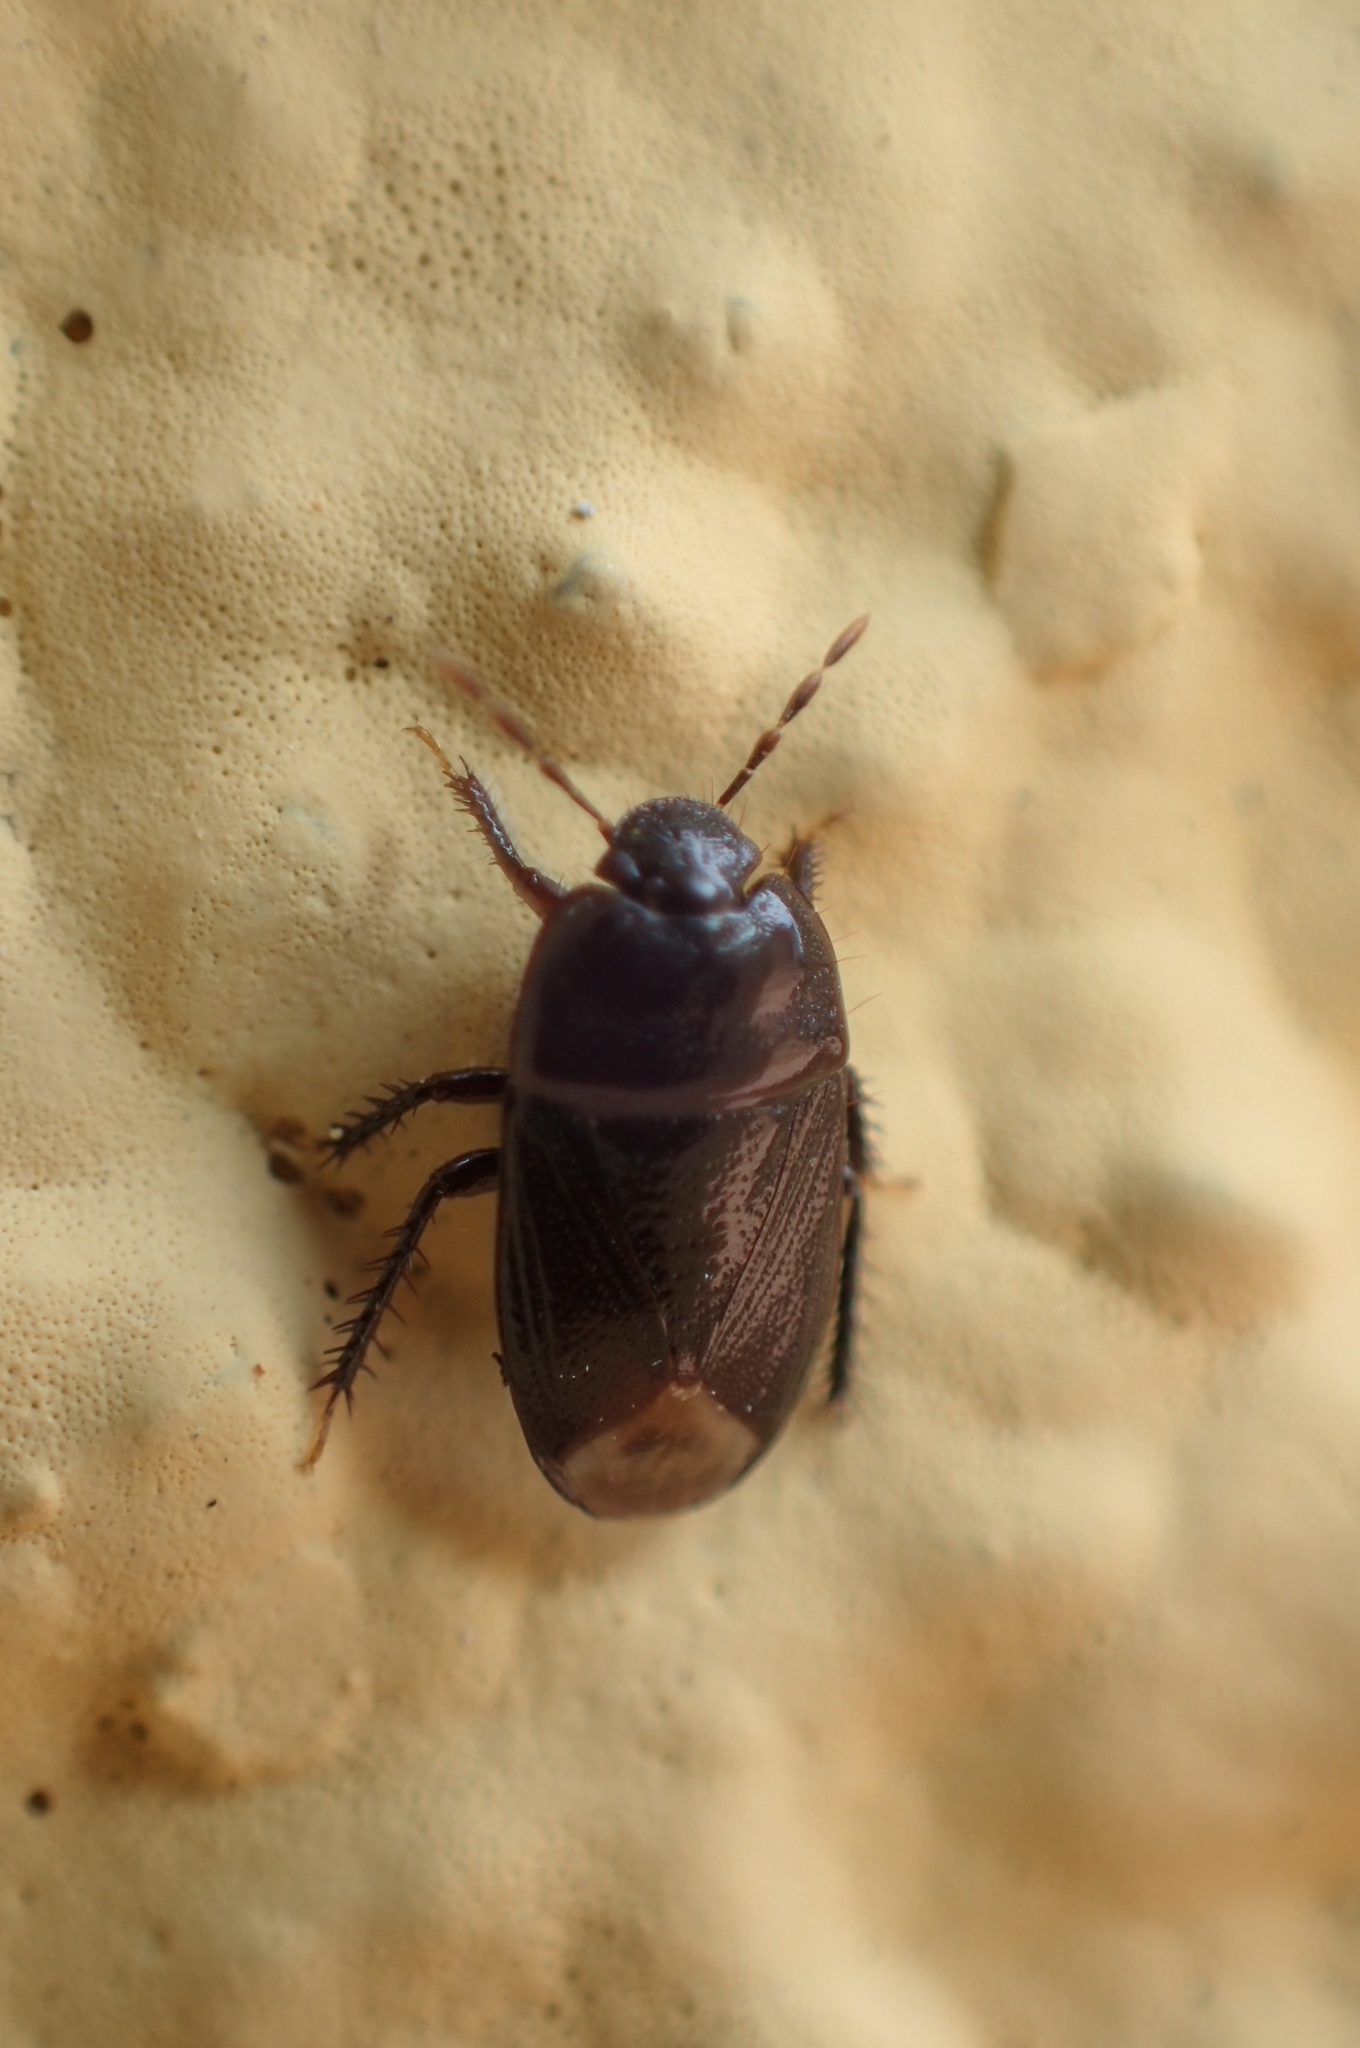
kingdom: Animalia
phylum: Arthropoda
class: Insecta
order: Hemiptera
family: Cydnidae
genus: Geotomus
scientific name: Geotomus elongatus
